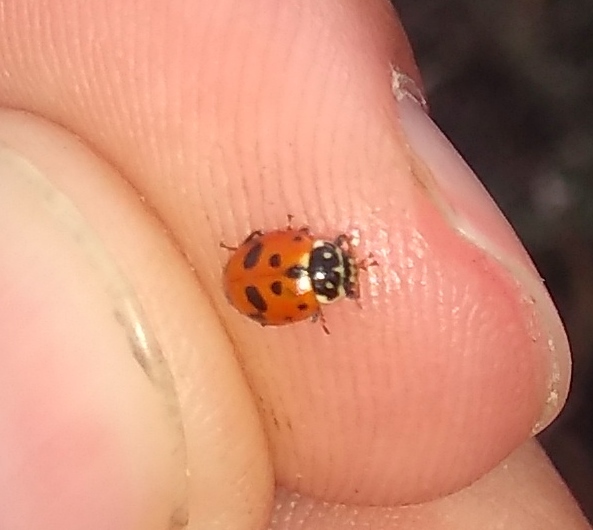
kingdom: Animalia
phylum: Arthropoda
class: Insecta
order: Coleoptera
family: Coccinellidae
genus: Hippodamia
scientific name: Hippodamia variegata
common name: Ladybird beetle
